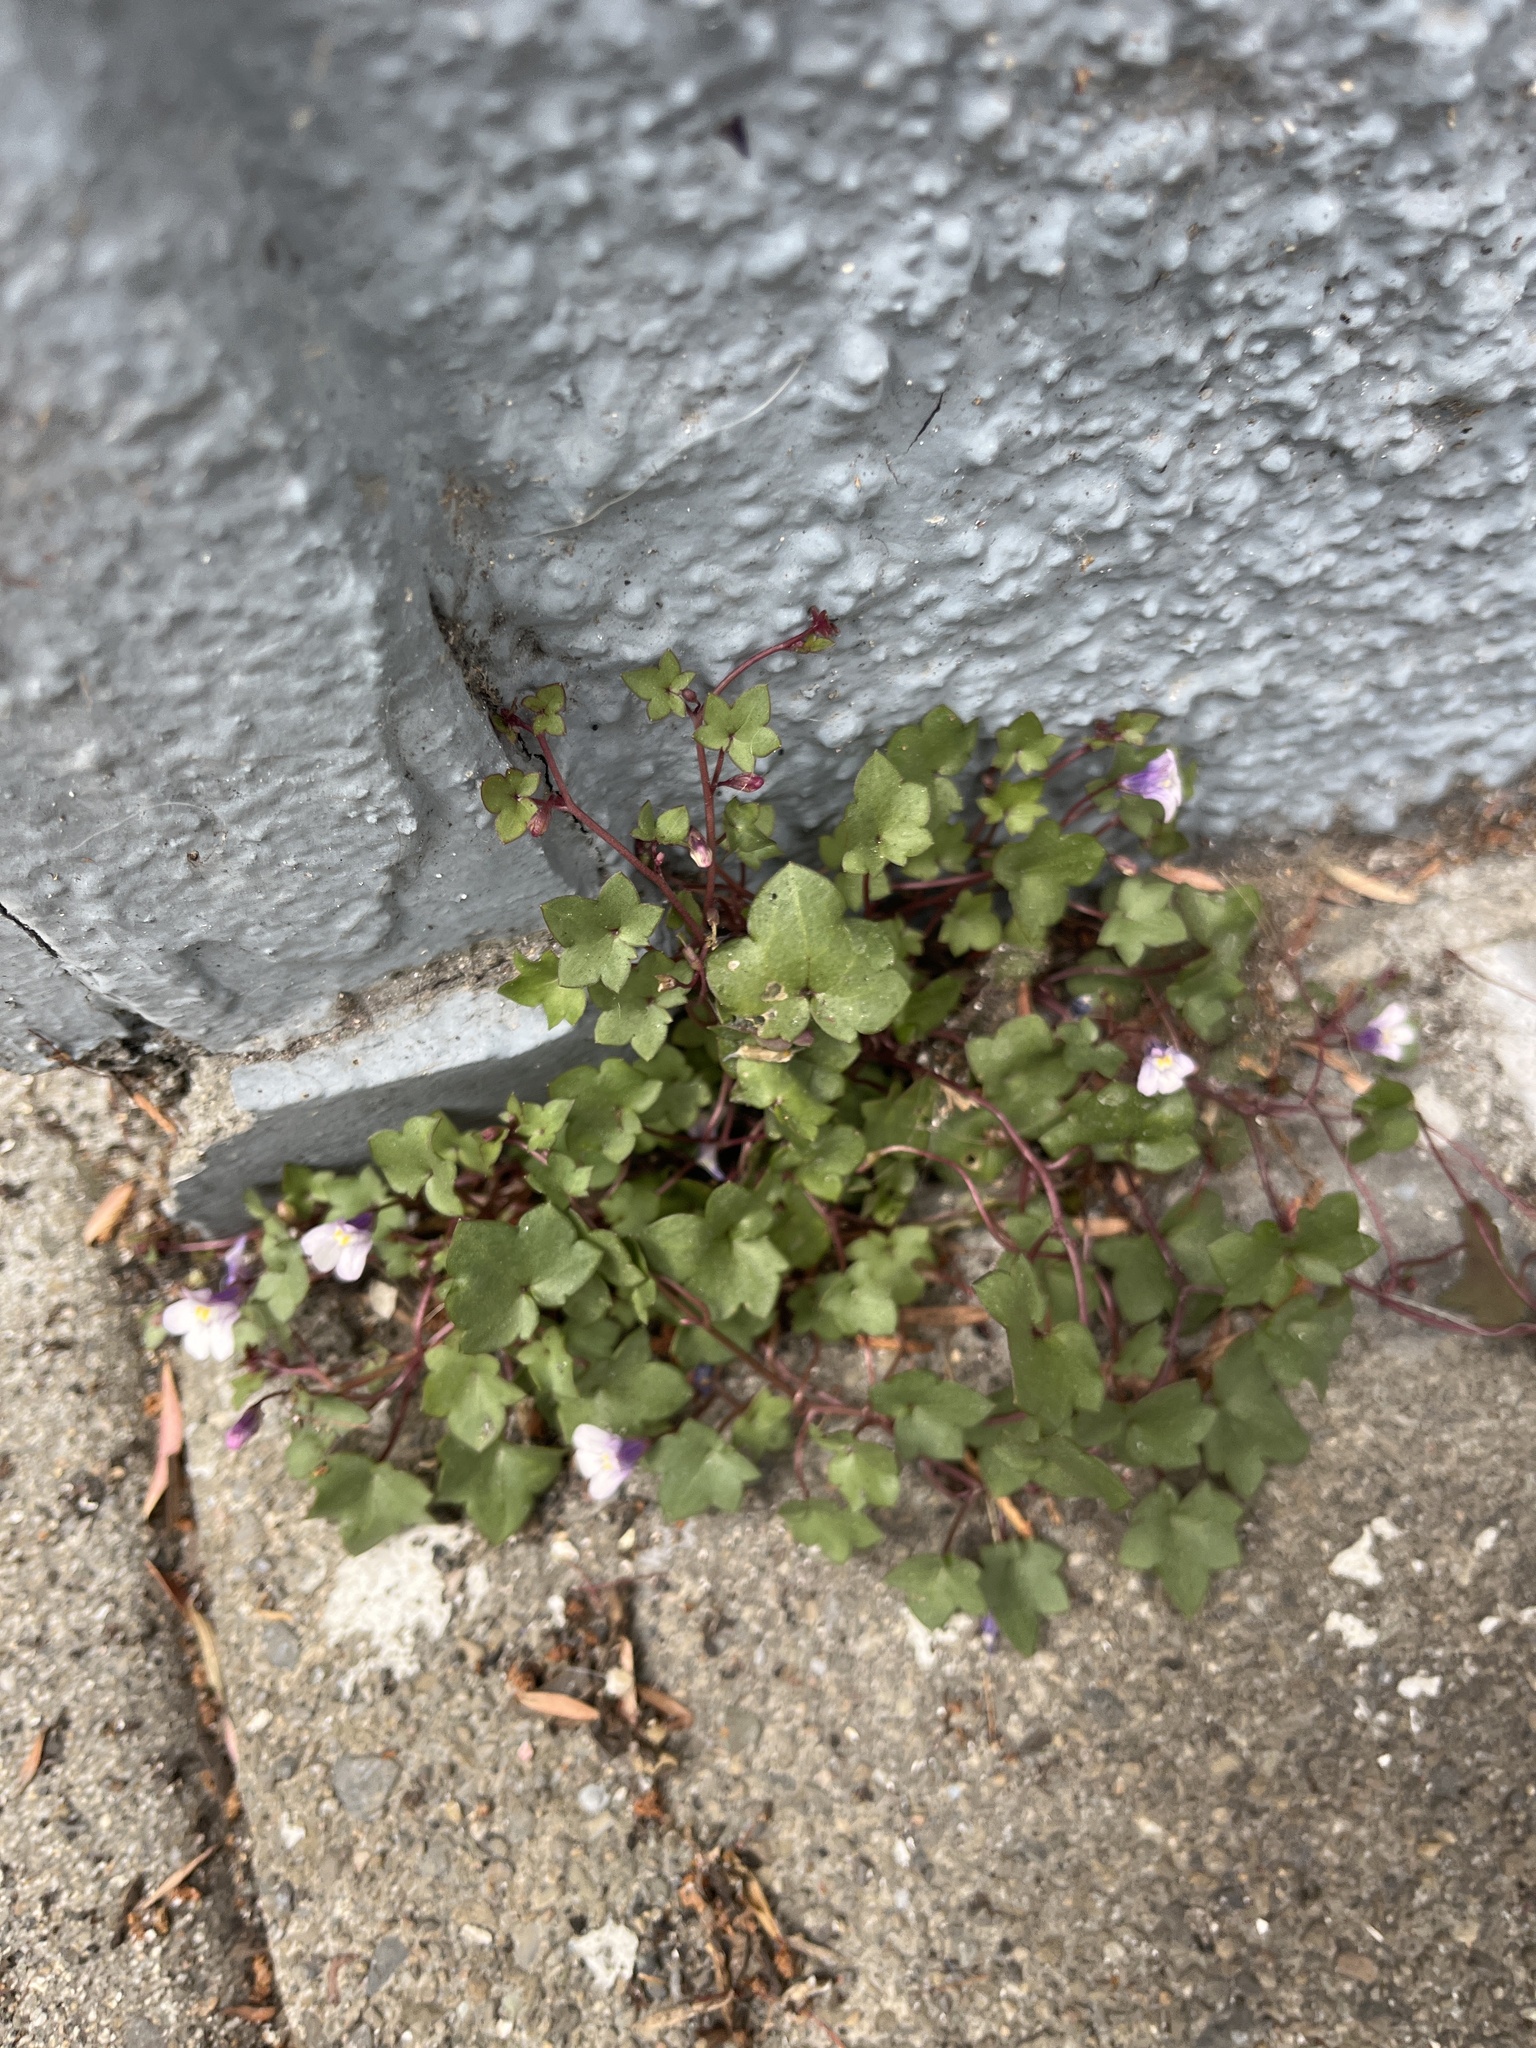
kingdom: Plantae
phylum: Tracheophyta
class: Magnoliopsida
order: Lamiales
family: Plantaginaceae
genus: Cymbalaria
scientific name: Cymbalaria muralis
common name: Ivy-leaved toadflax
